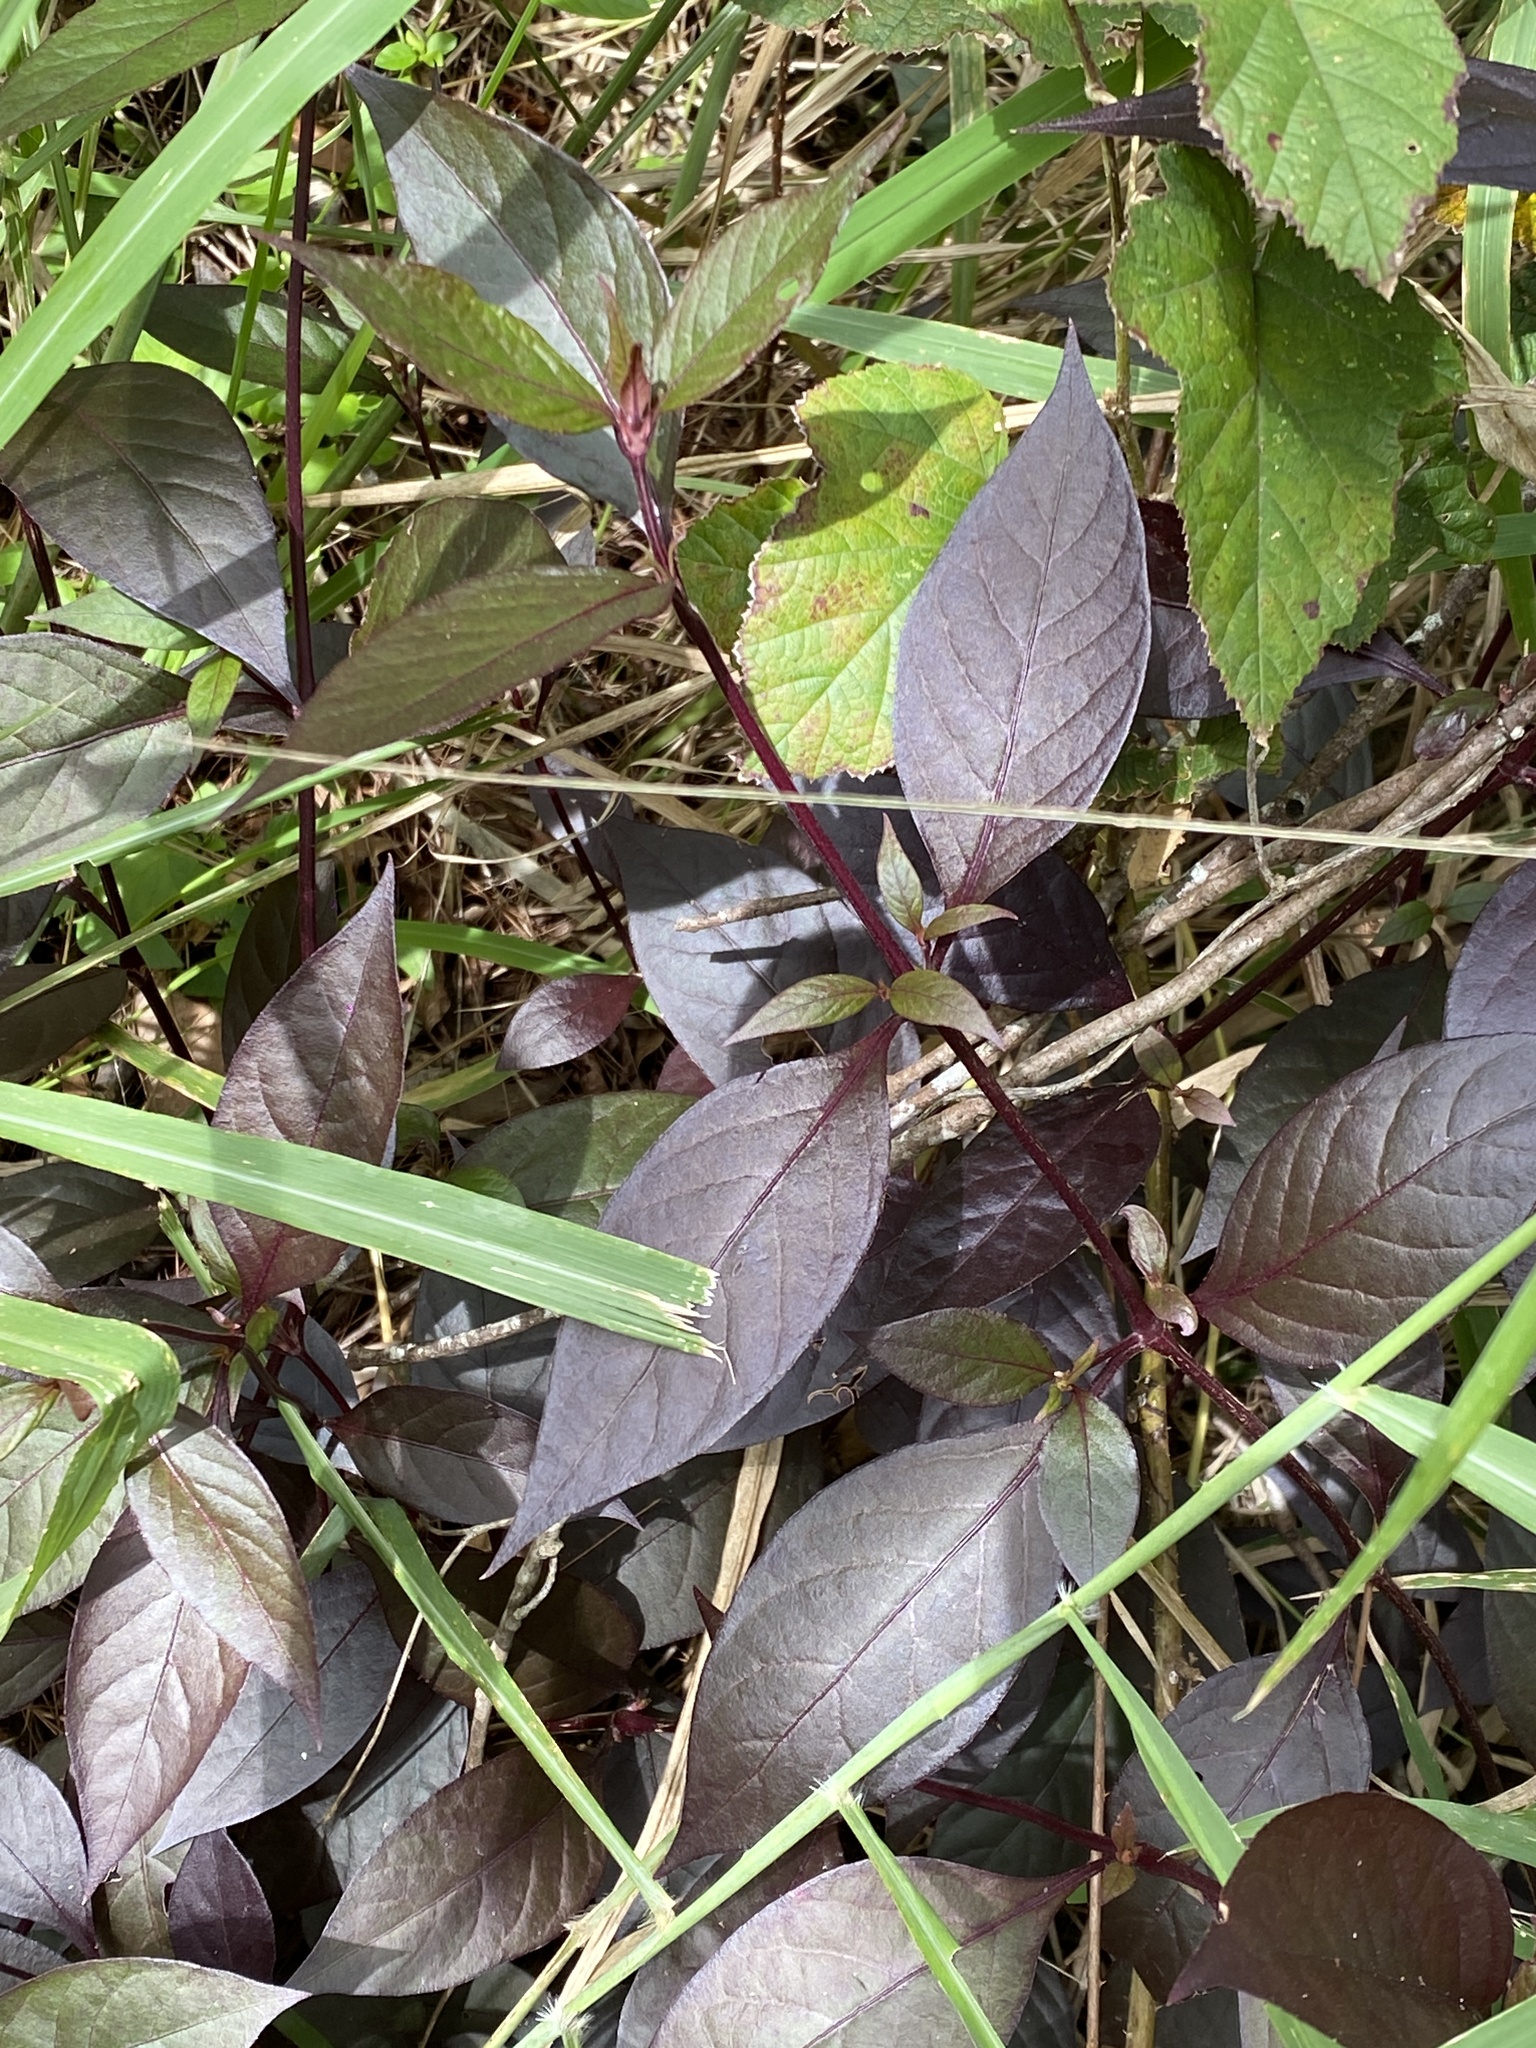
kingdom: Plantae
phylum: Tracheophyta
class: Magnoliopsida
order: Caryophyllales
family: Amaranthaceae
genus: Alternanthera
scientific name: Alternanthera brasiliana
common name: Brazilian joyweed
